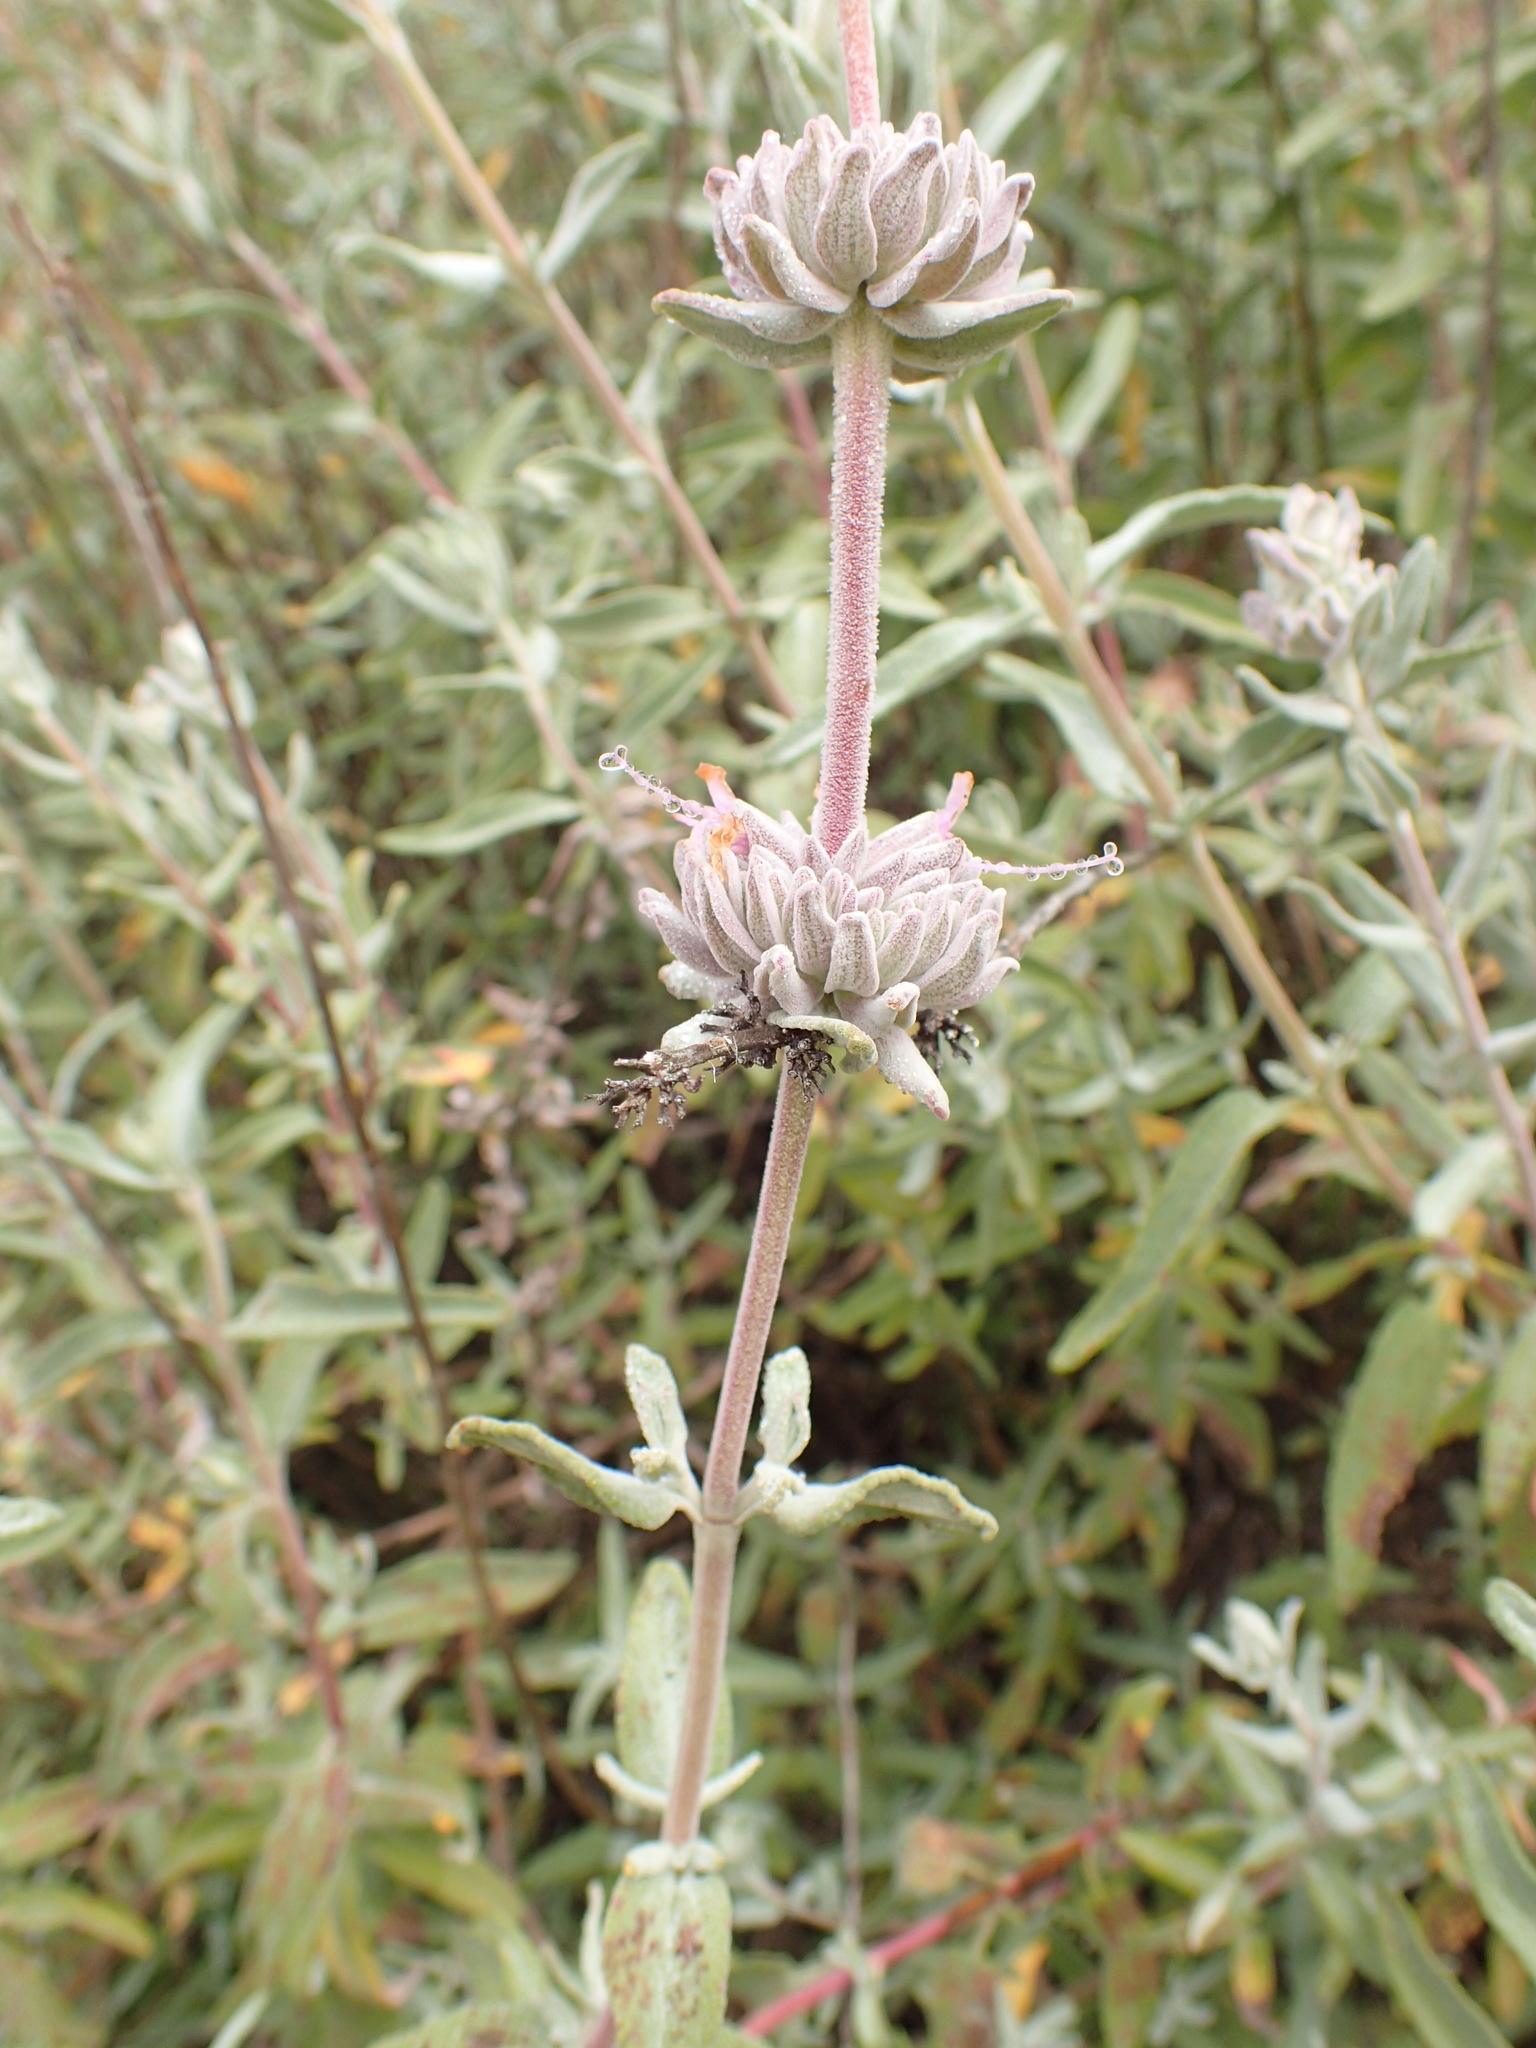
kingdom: Plantae
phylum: Tracheophyta
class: Magnoliopsida
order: Lamiales
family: Lamiaceae
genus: Salvia
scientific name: Salvia leucophylla
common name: Purple sage
